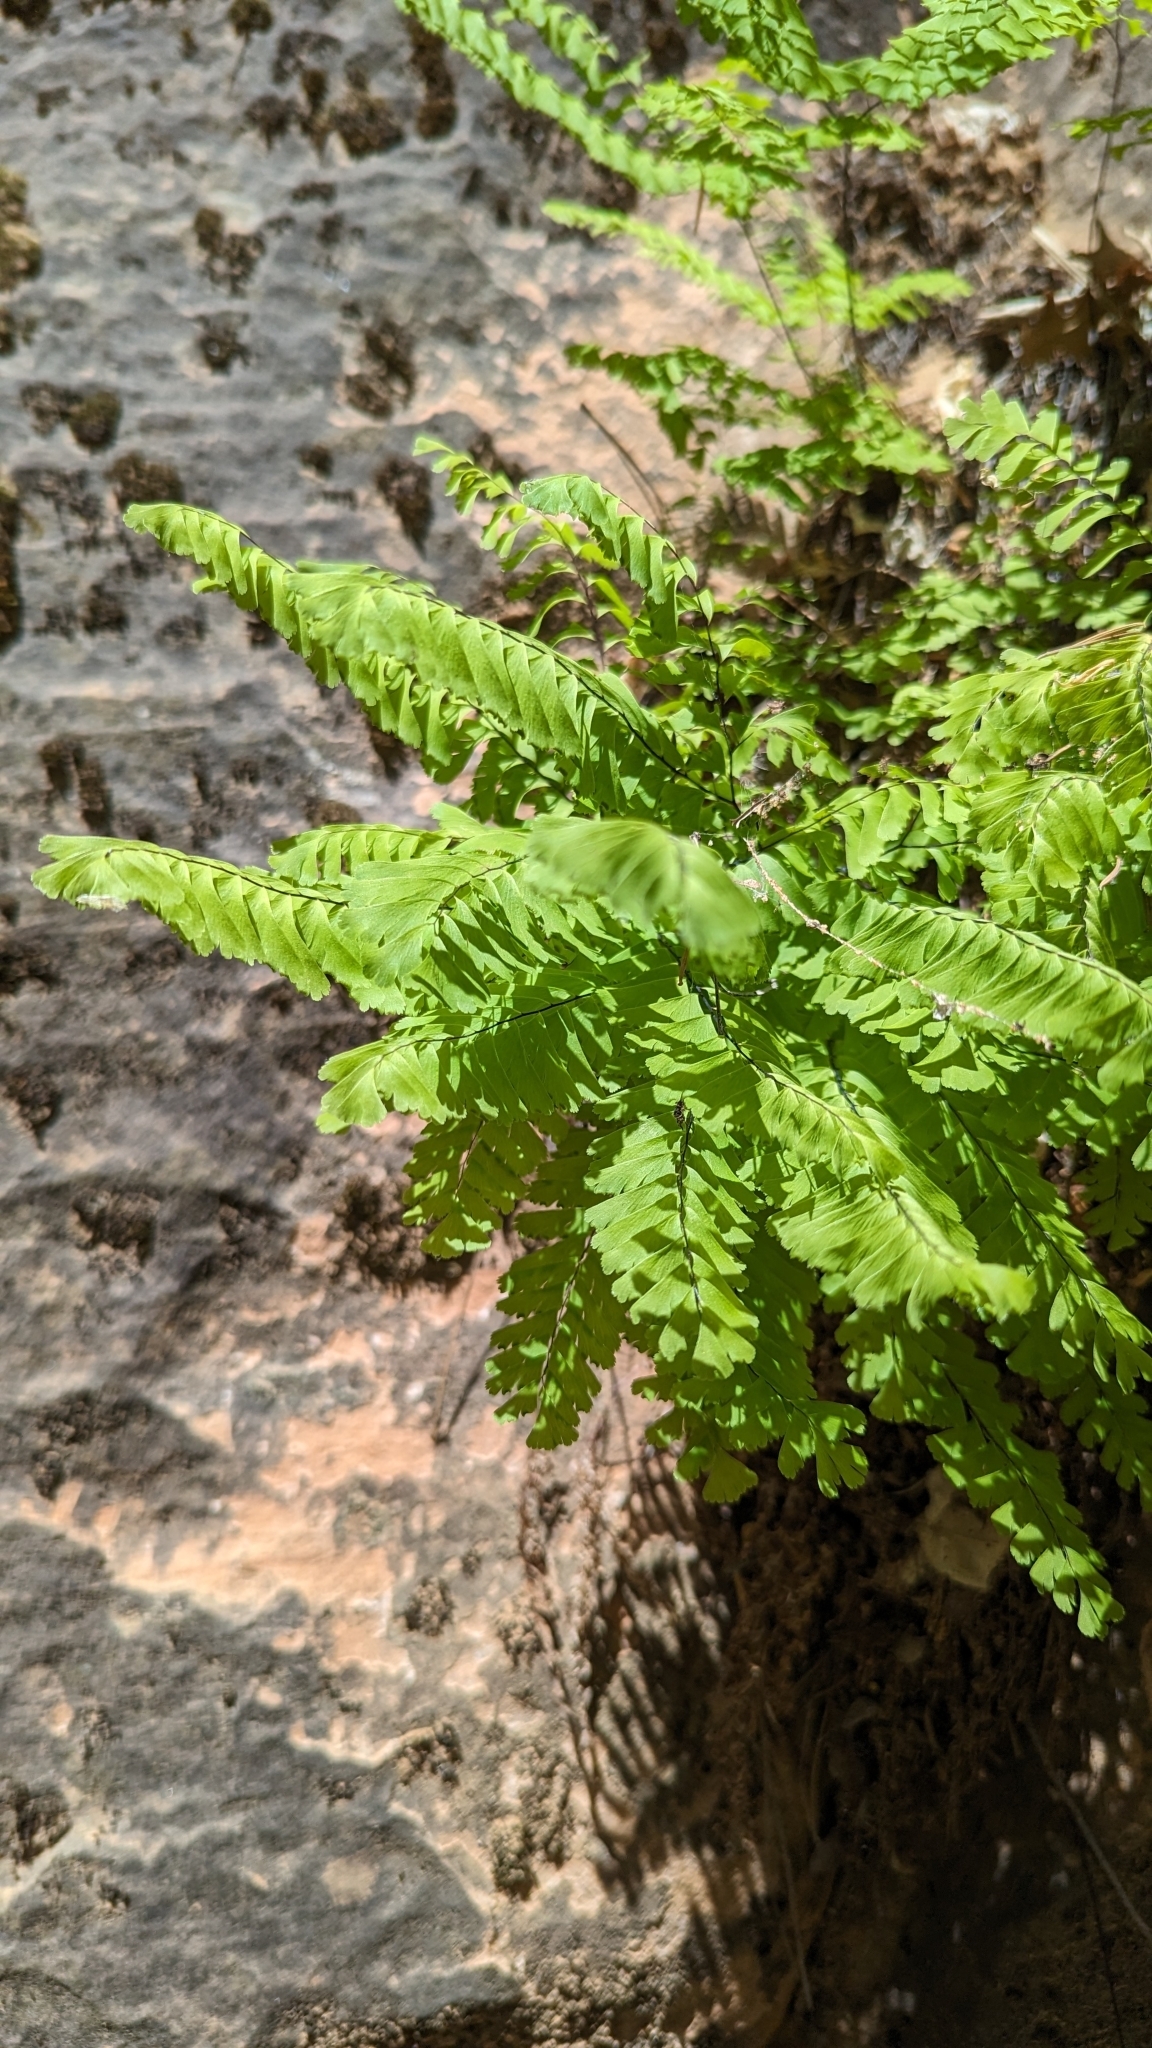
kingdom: Plantae
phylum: Tracheophyta
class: Polypodiopsida
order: Polypodiales
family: Pteridaceae
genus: Adiantum
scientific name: Adiantum aleuticum
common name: Aleutian maidenhair fern
